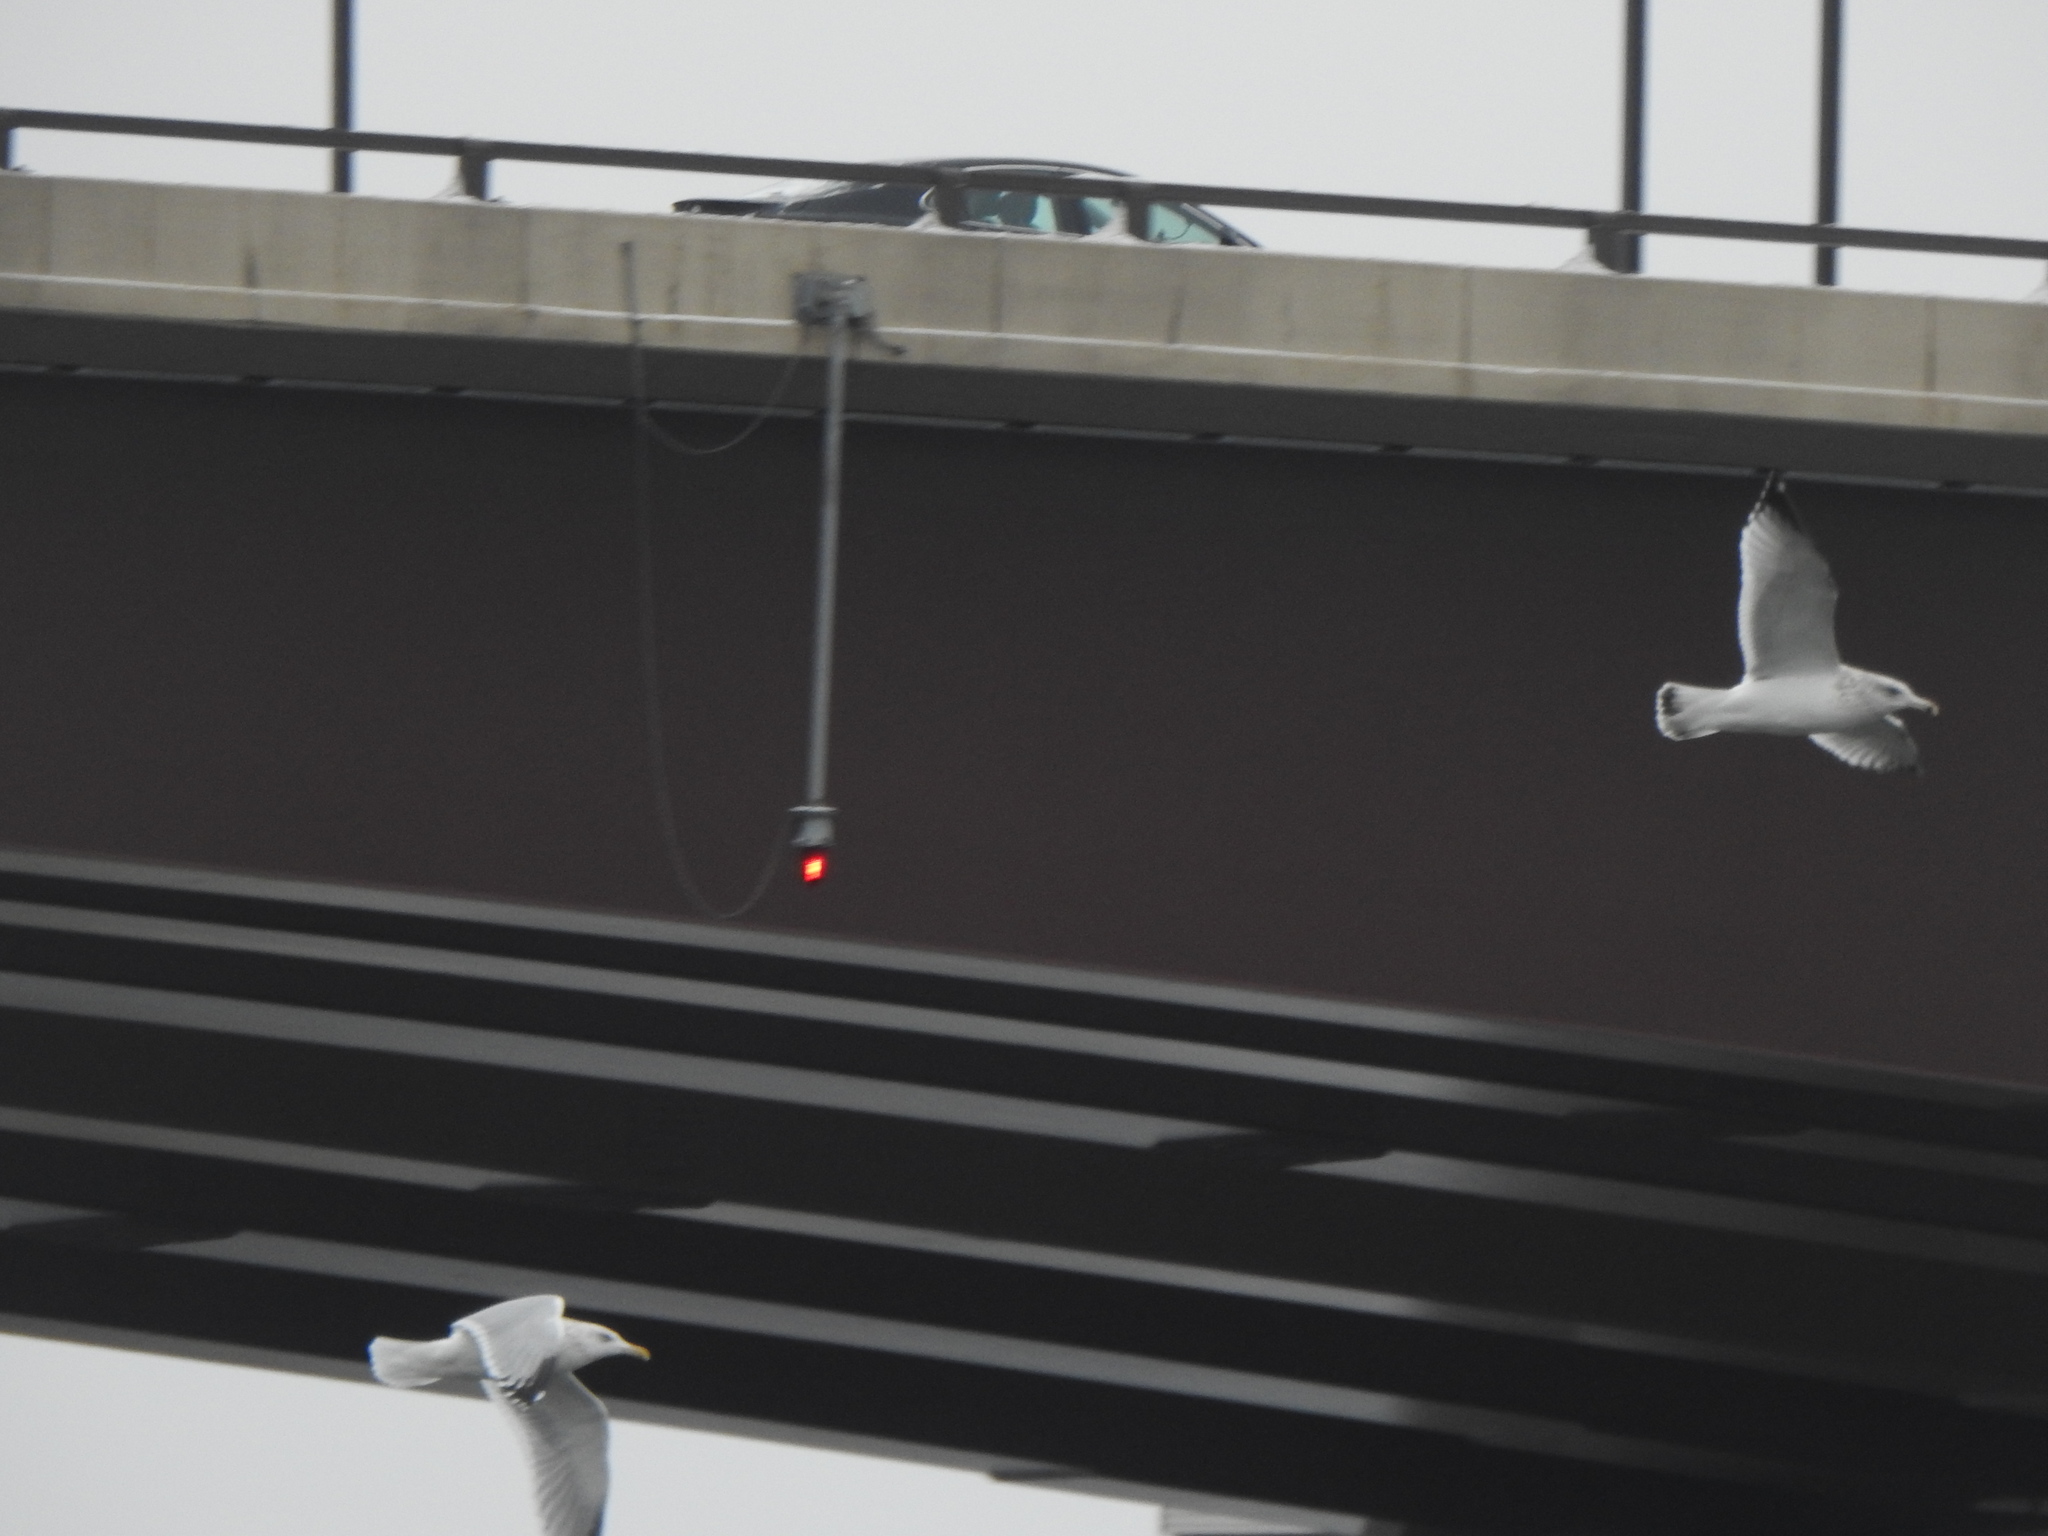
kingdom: Animalia
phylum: Chordata
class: Aves
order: Charadriiformes
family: Laridae
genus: Larus
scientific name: Larus argentatus
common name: Herring gull
